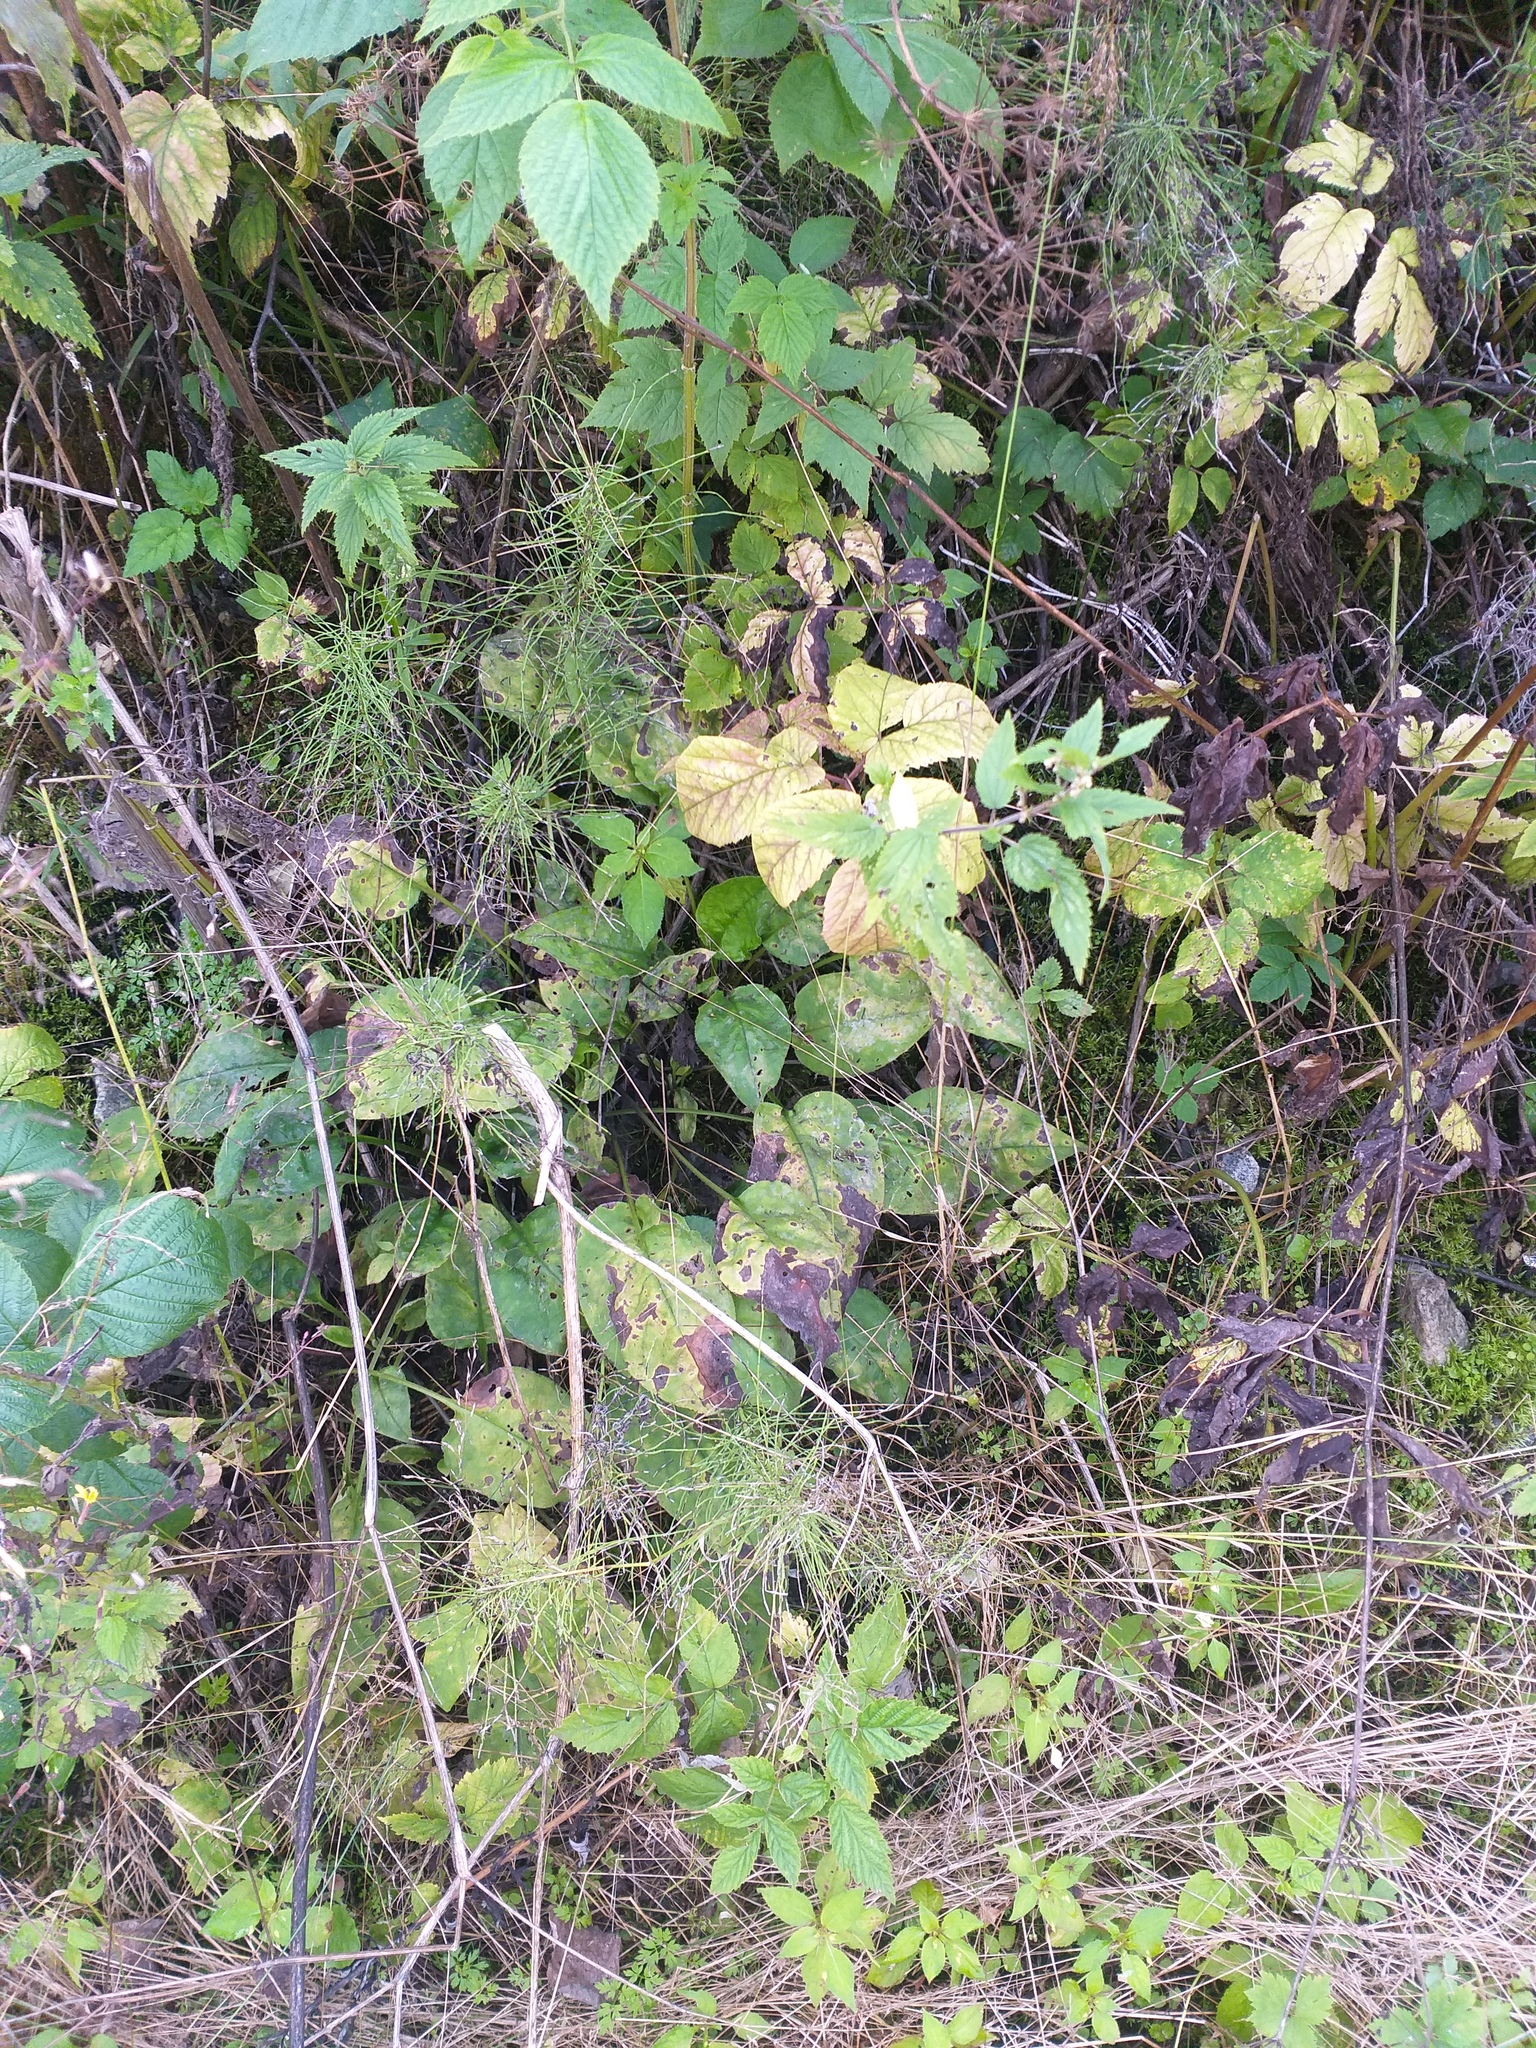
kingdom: Plantae
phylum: Tracheophyta
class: Magnoliopsida
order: Boraginales
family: Boraginaceae
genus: Pulmonaria
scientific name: Pulmonaria obscura
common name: Suffolk lungwort
